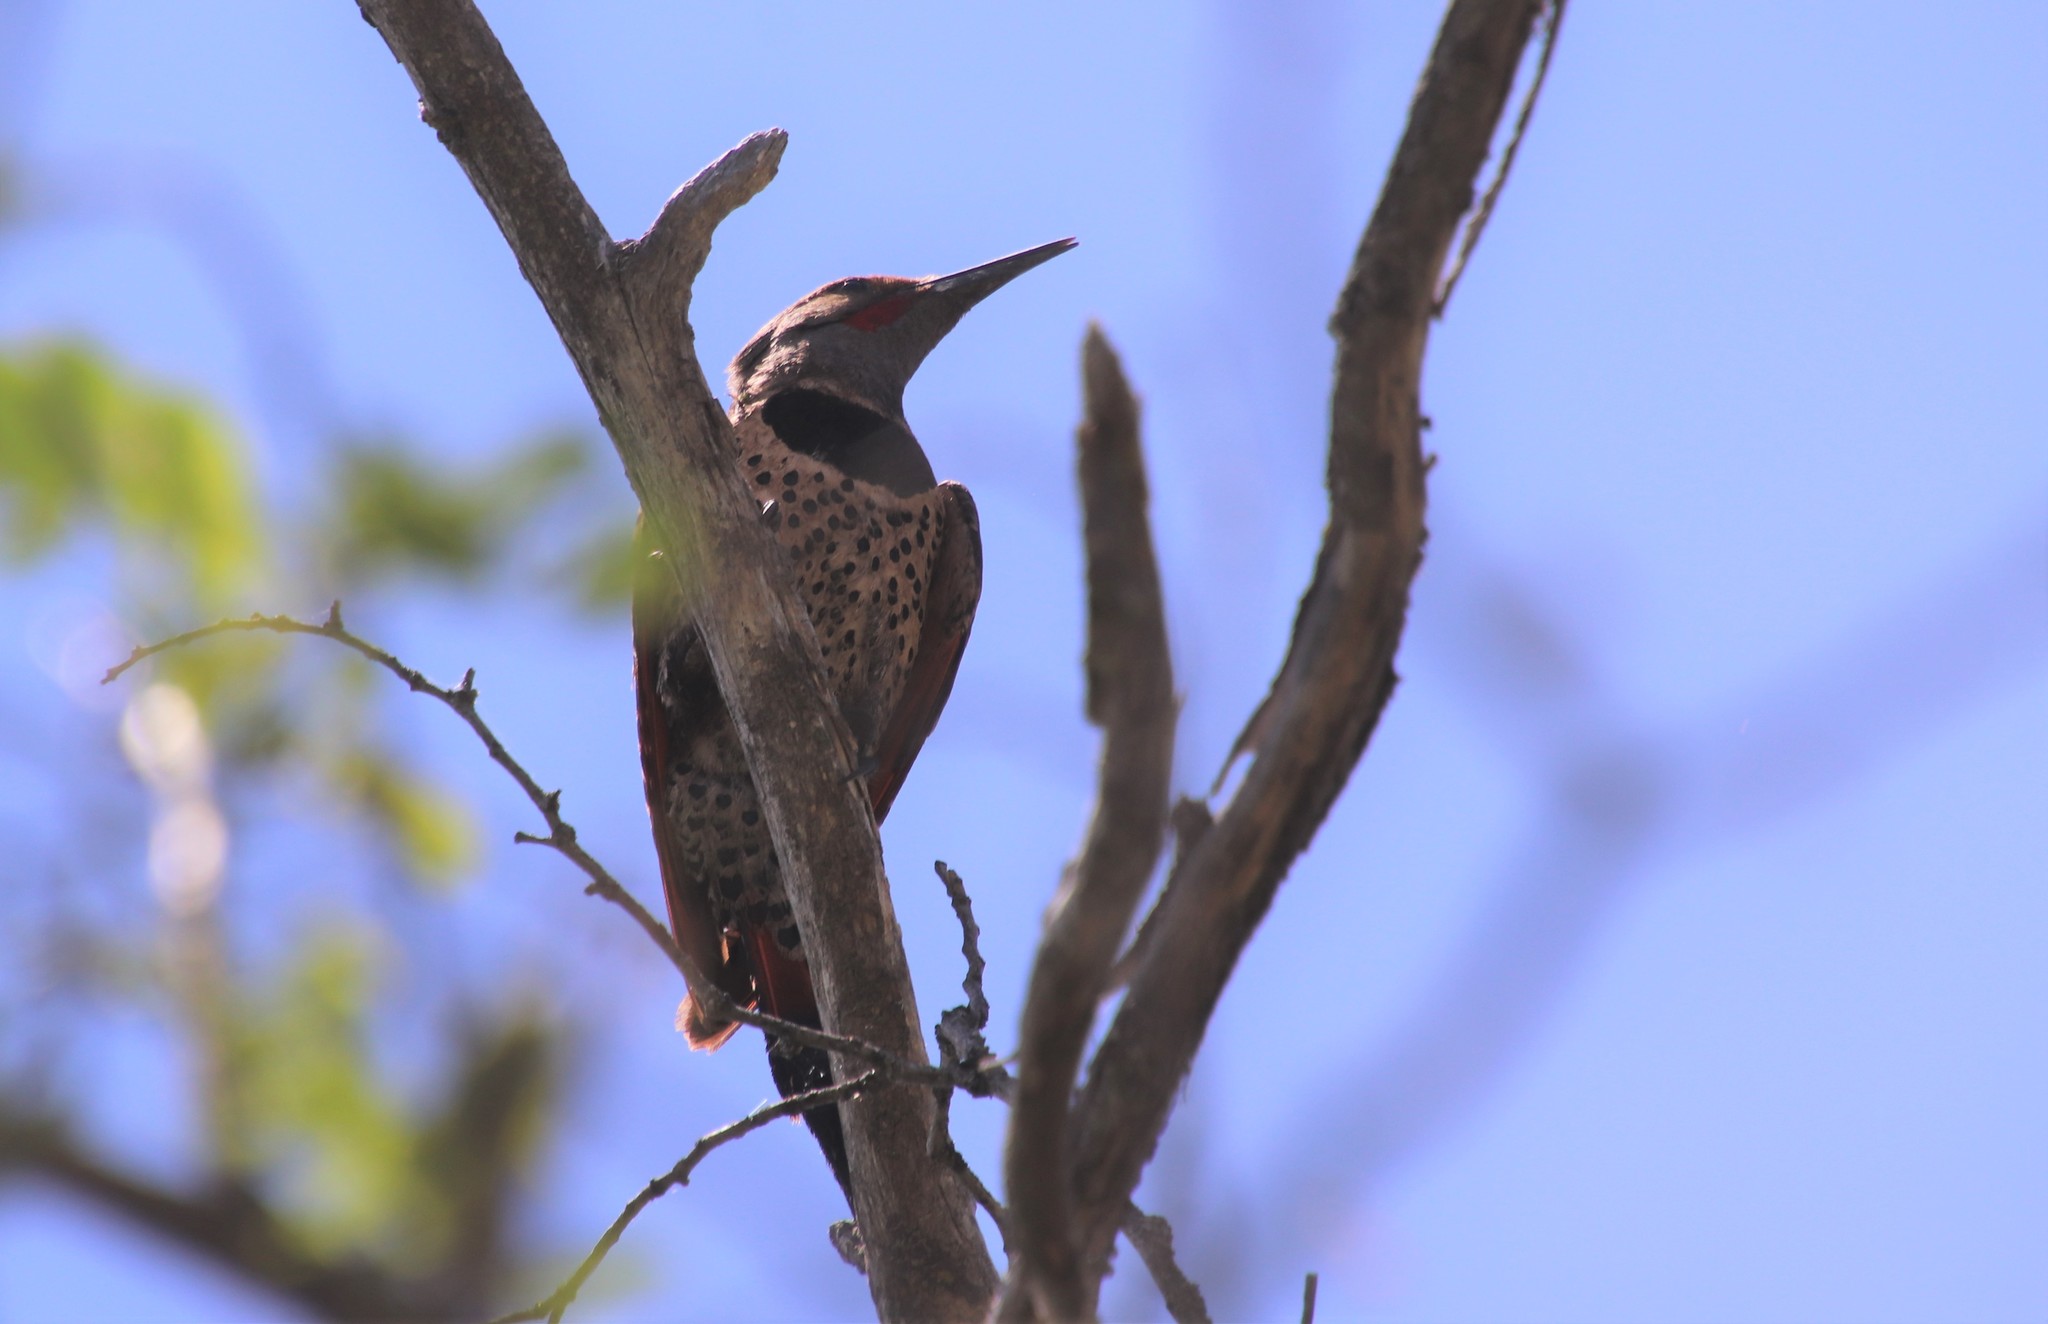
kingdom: Animalia
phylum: Chordata
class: Aves
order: Piciformes
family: Picidae
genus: Colaptes
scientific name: Colaptes auratus
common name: Northern flicker
